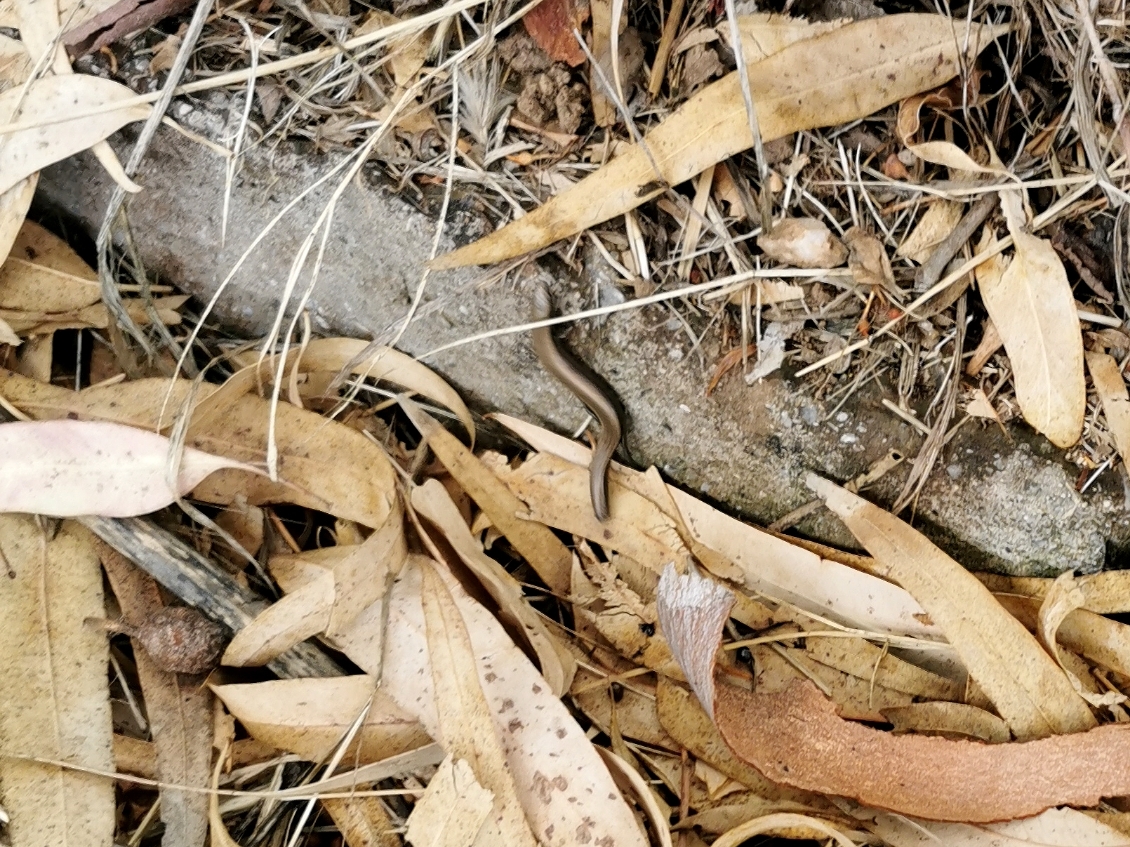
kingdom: Animalia
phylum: Chordata
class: Squamata
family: Scincidae
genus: Ablepharus
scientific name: Ablepharus kitaibelii
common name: Juniper skink
